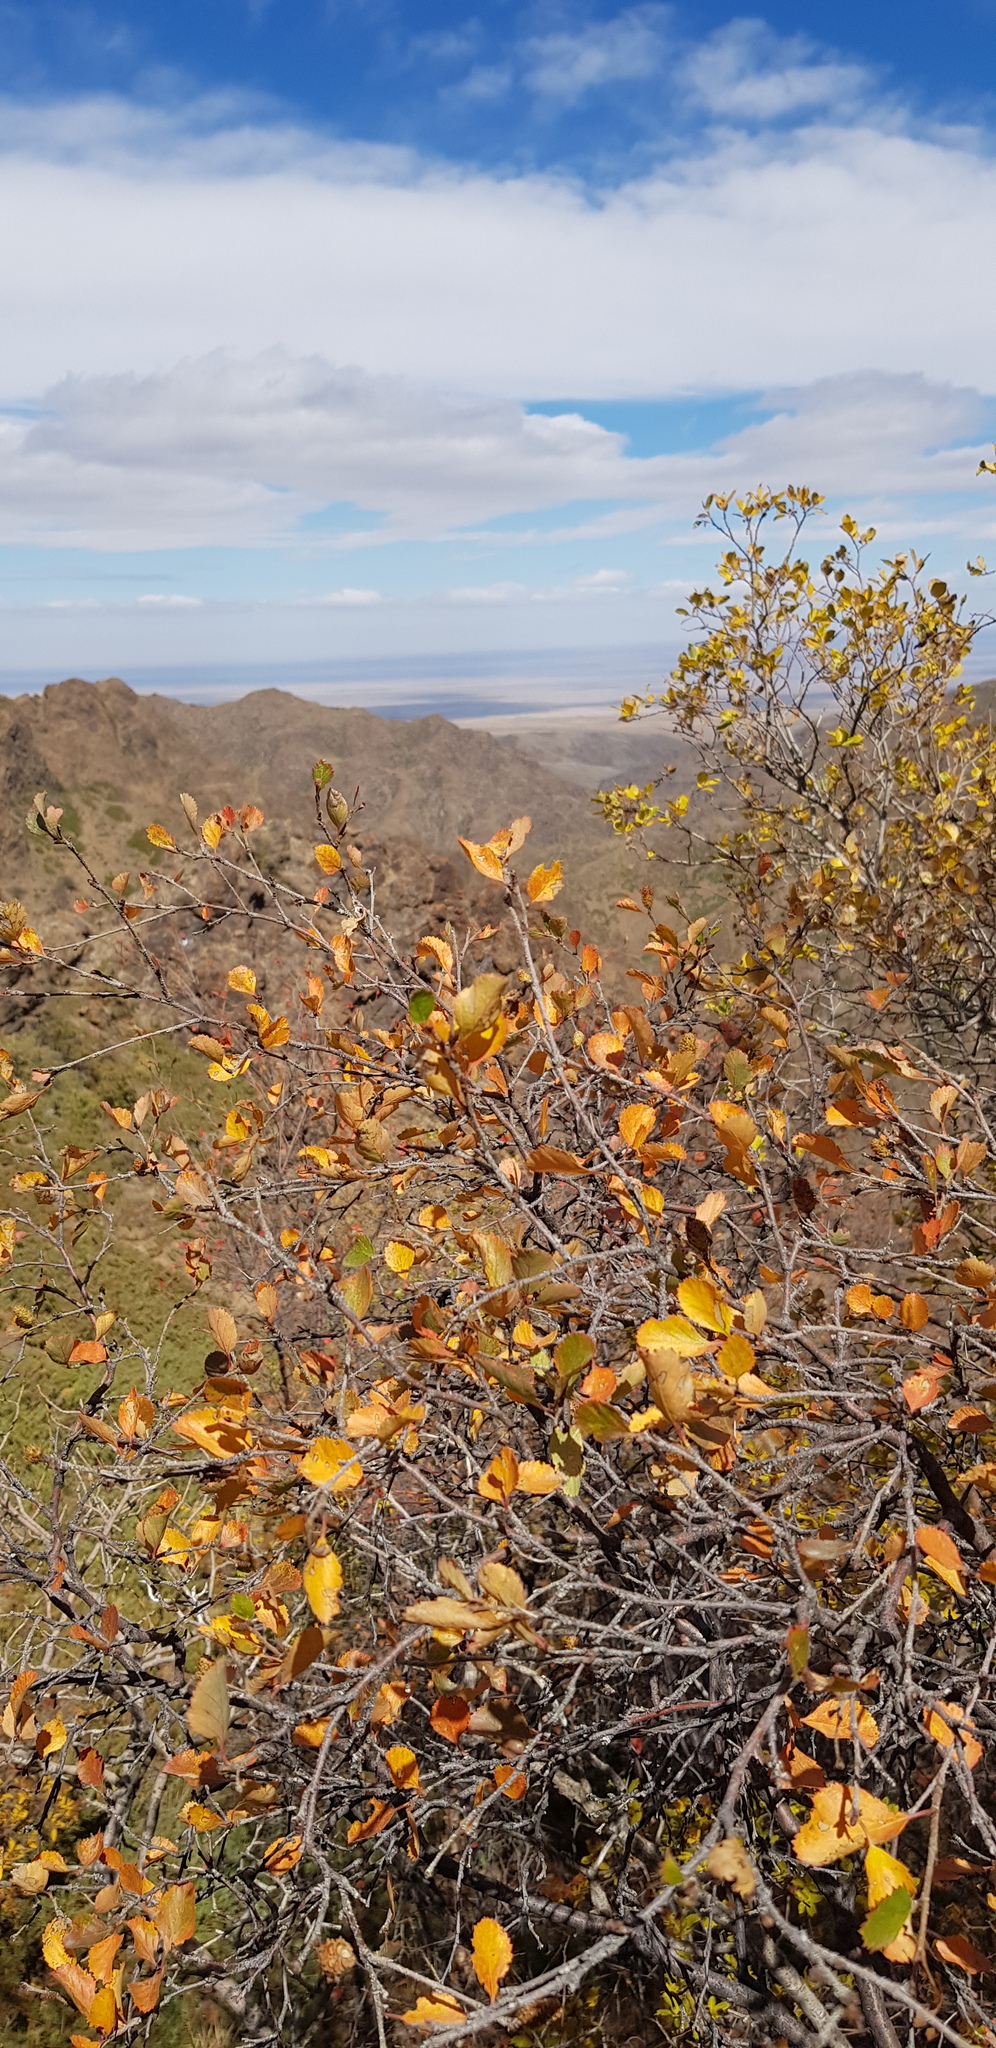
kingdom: Plantae
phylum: Tracheophyta
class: Magnoliopsida
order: Fagales
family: Betulaceae
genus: Betula
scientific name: Betula glandulosa
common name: Dwarf birch
